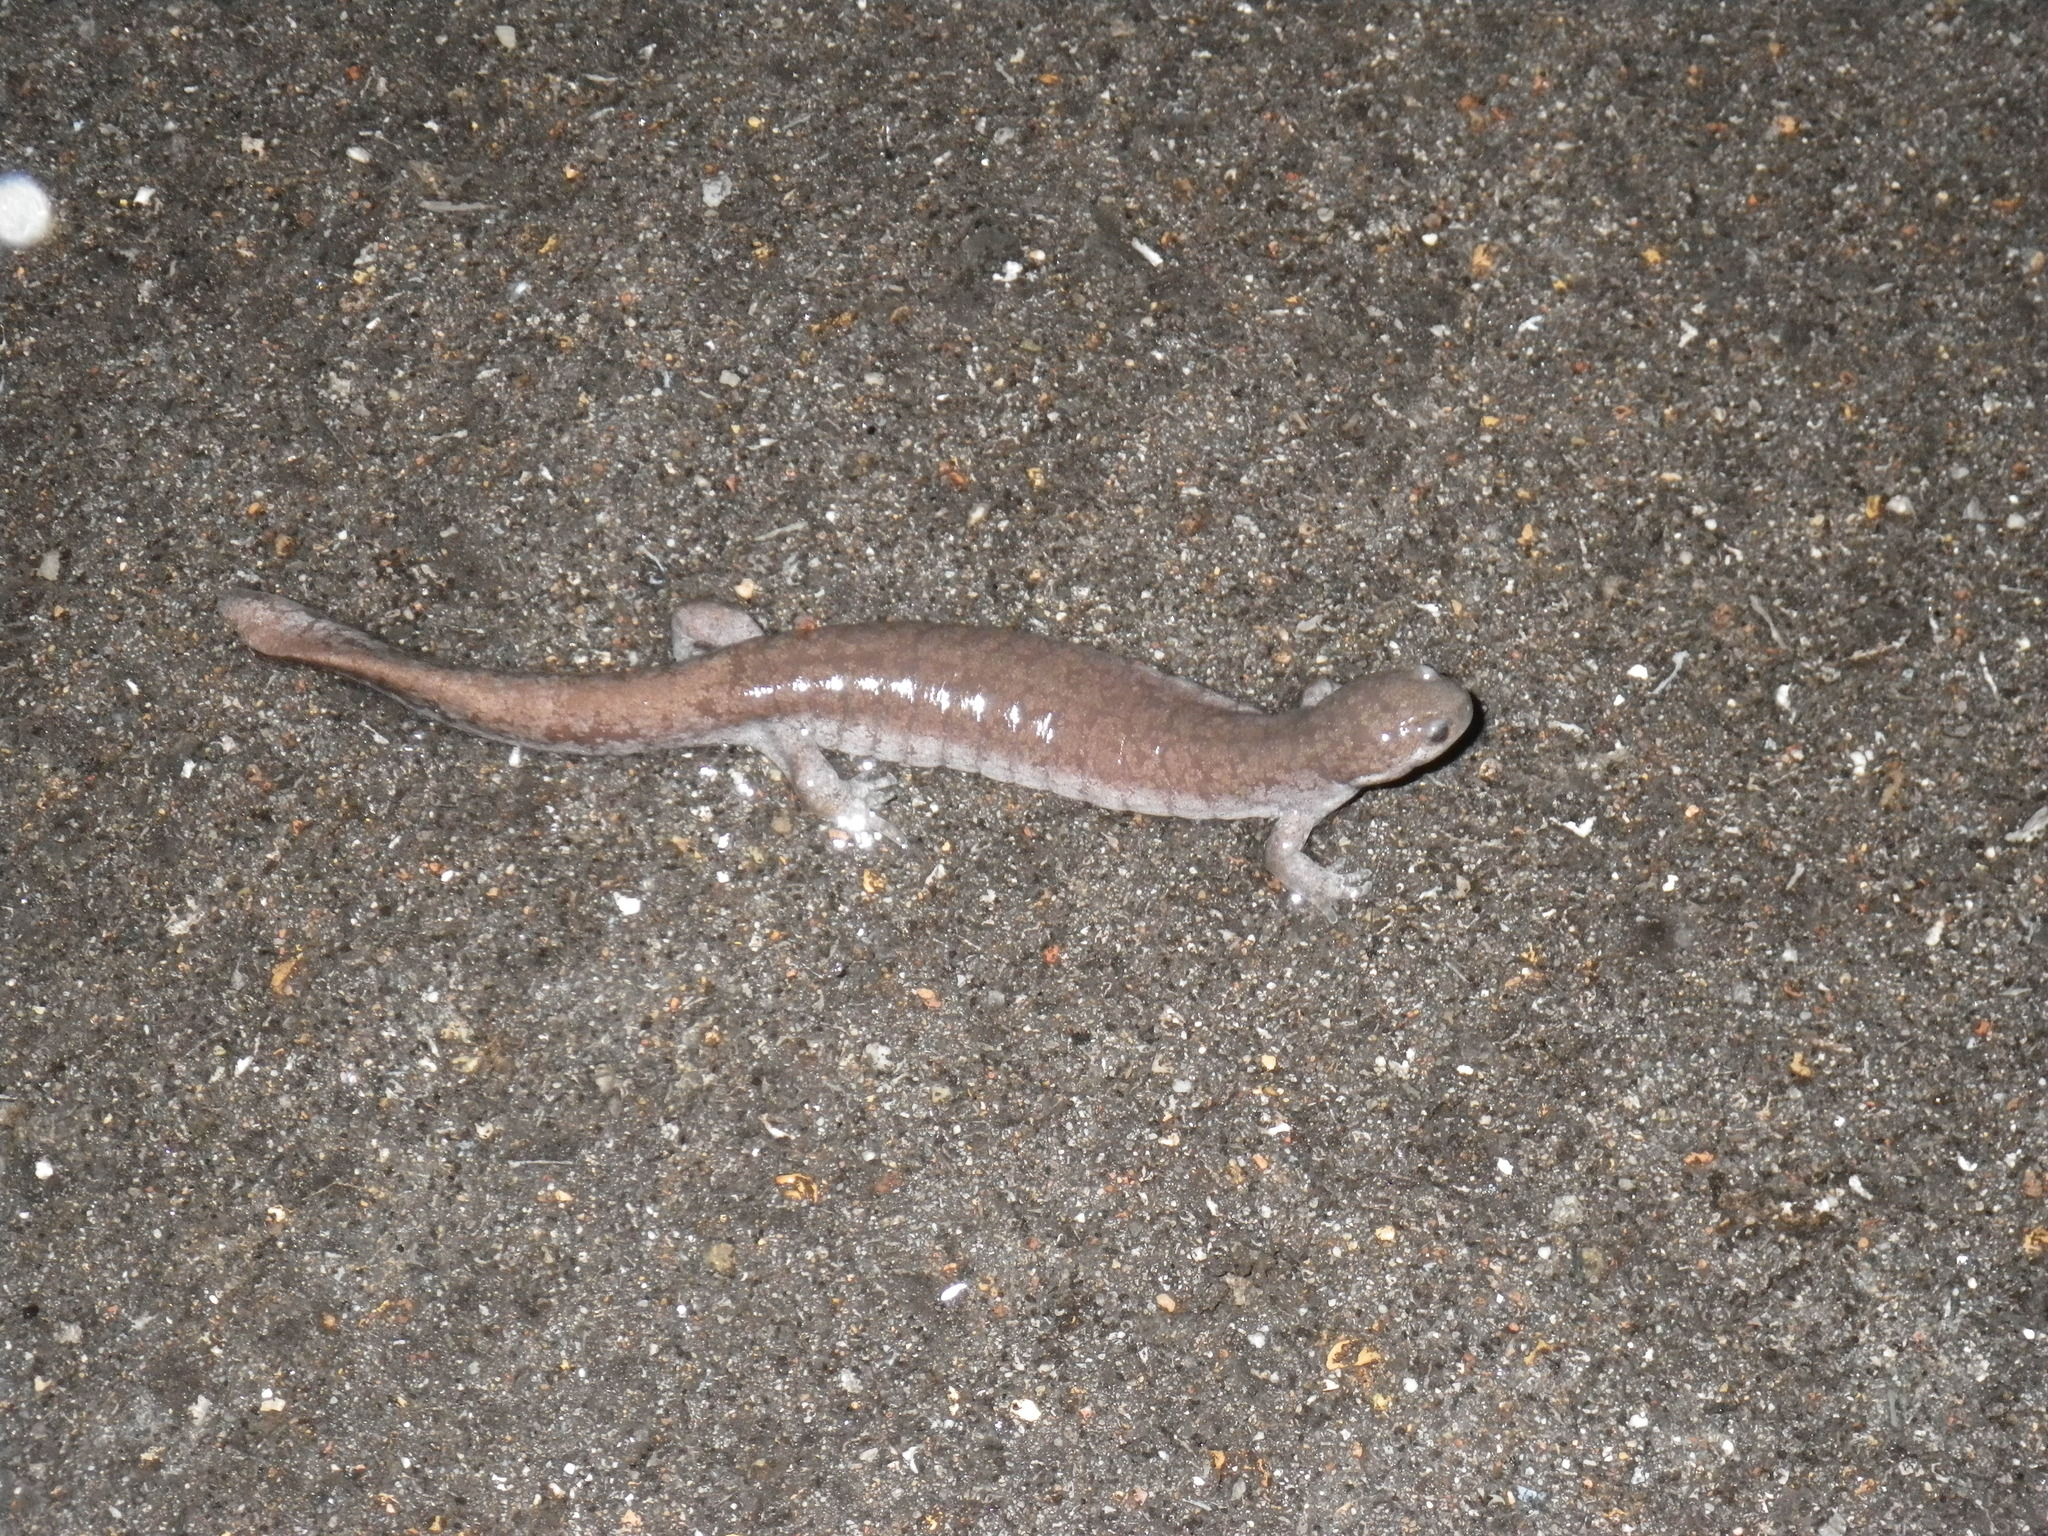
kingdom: Animalia
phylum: Chordata
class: Amphibia
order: Caudata
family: Ambystomatidae
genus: Ambystoma
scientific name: Ambystoma texanum
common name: Small-mouth salamander
